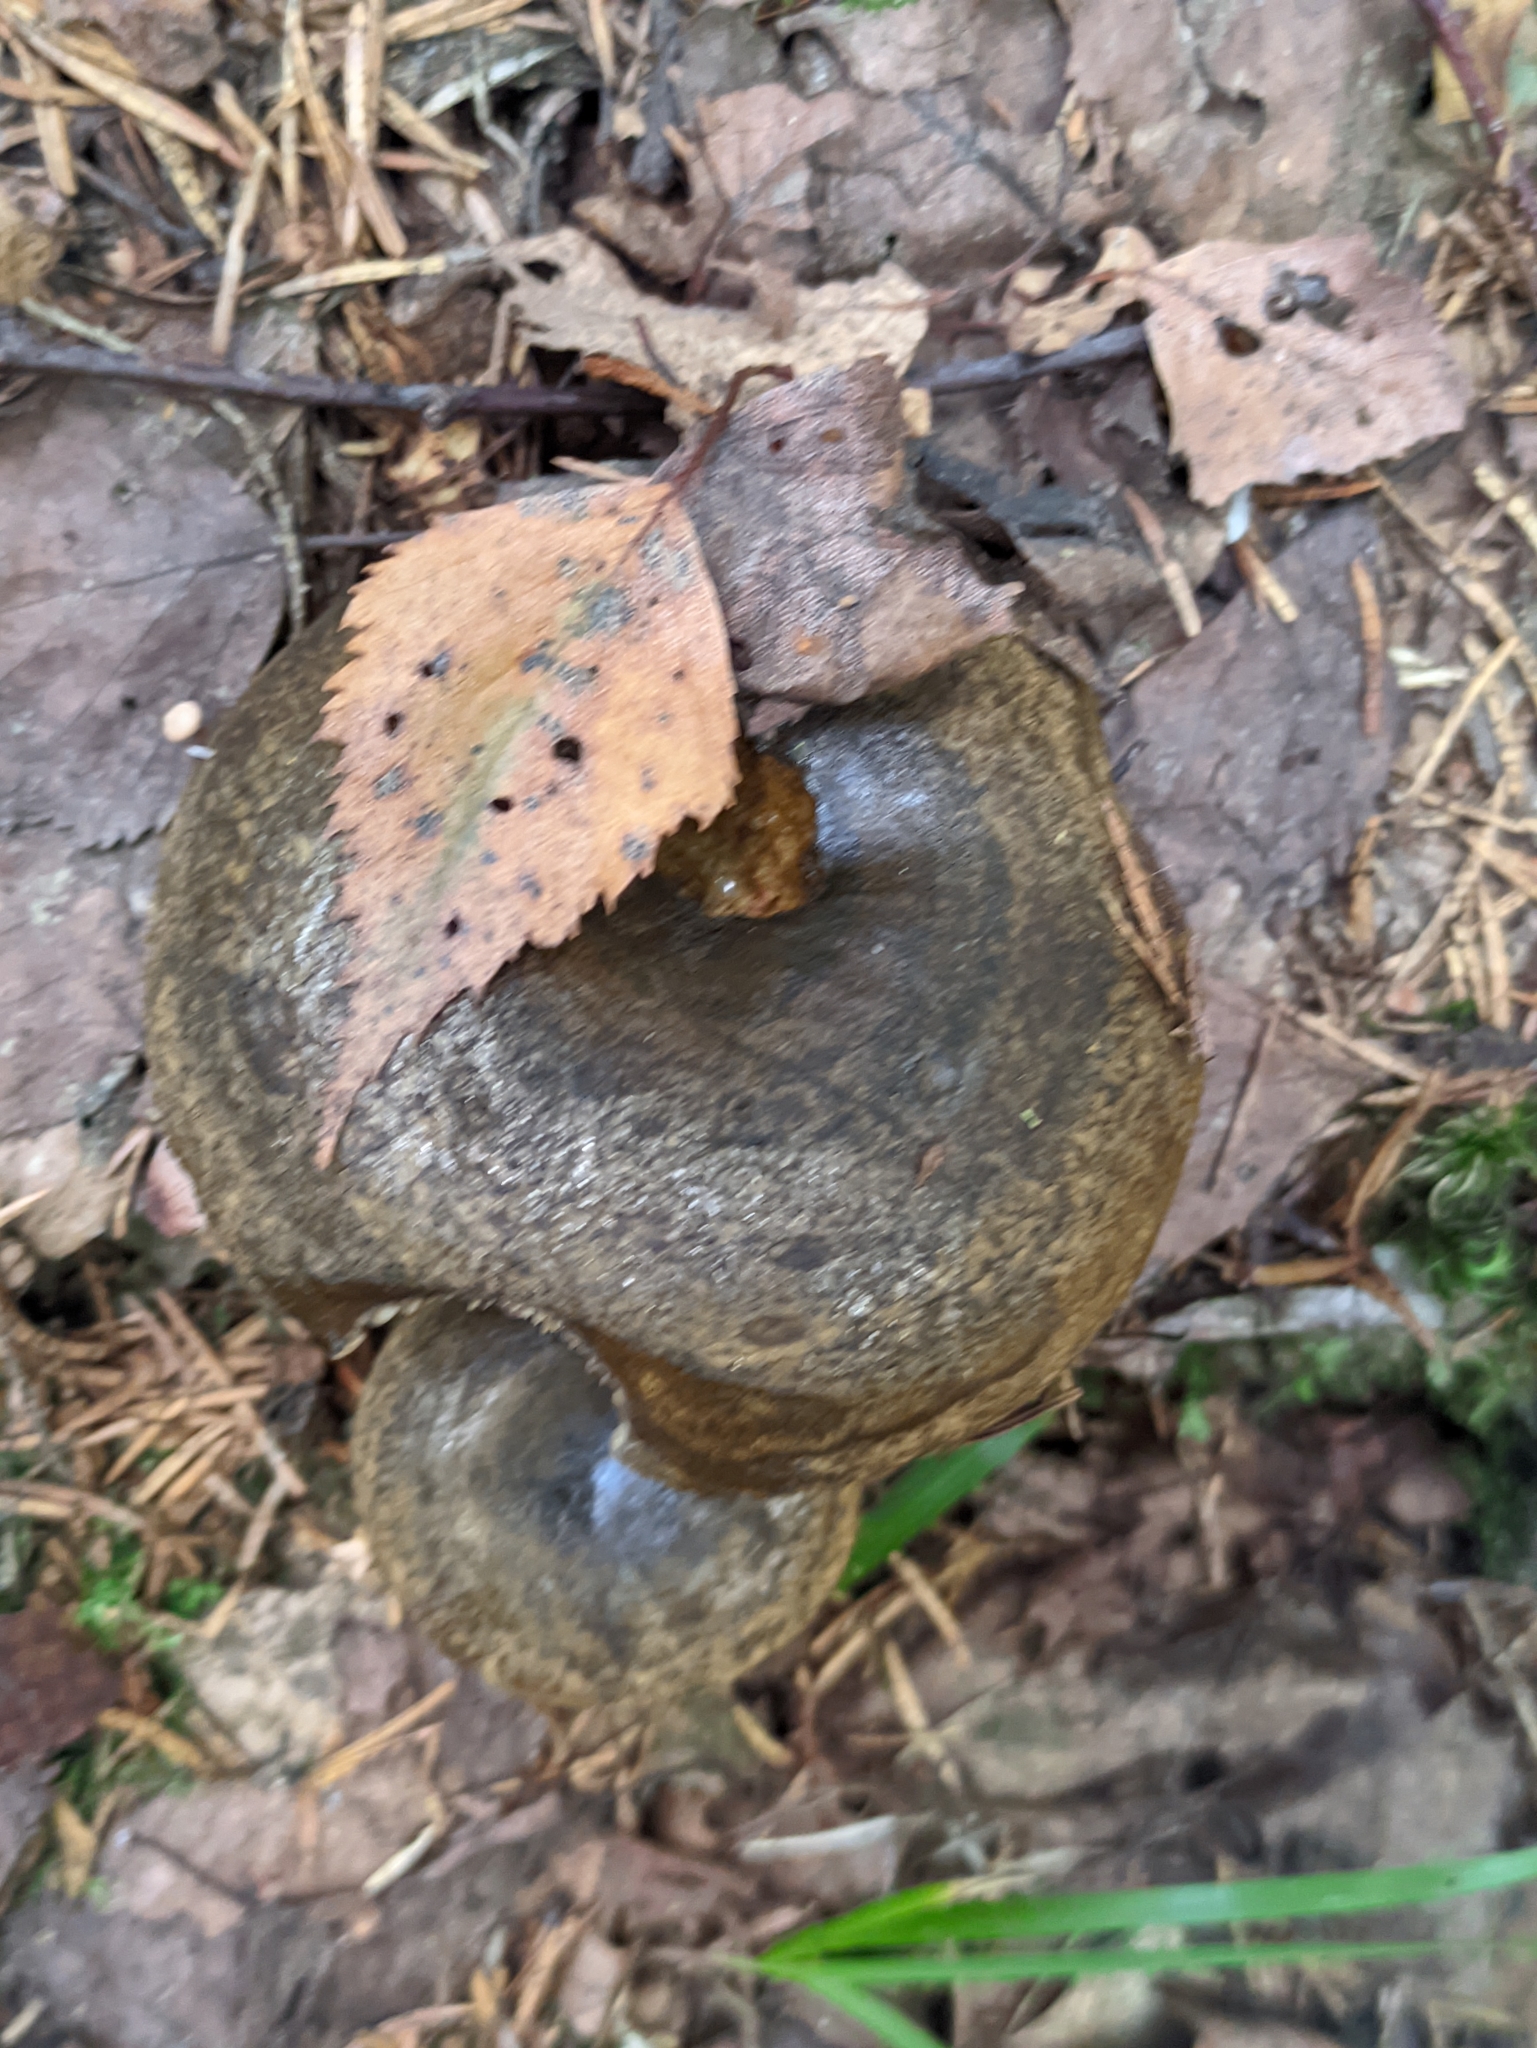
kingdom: Fungi
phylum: Basidiomycota
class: Agaricomycetes
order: Russulales
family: Russulaceae
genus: Lactarius
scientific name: Lactarius turpis
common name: Ugly milk-cap
